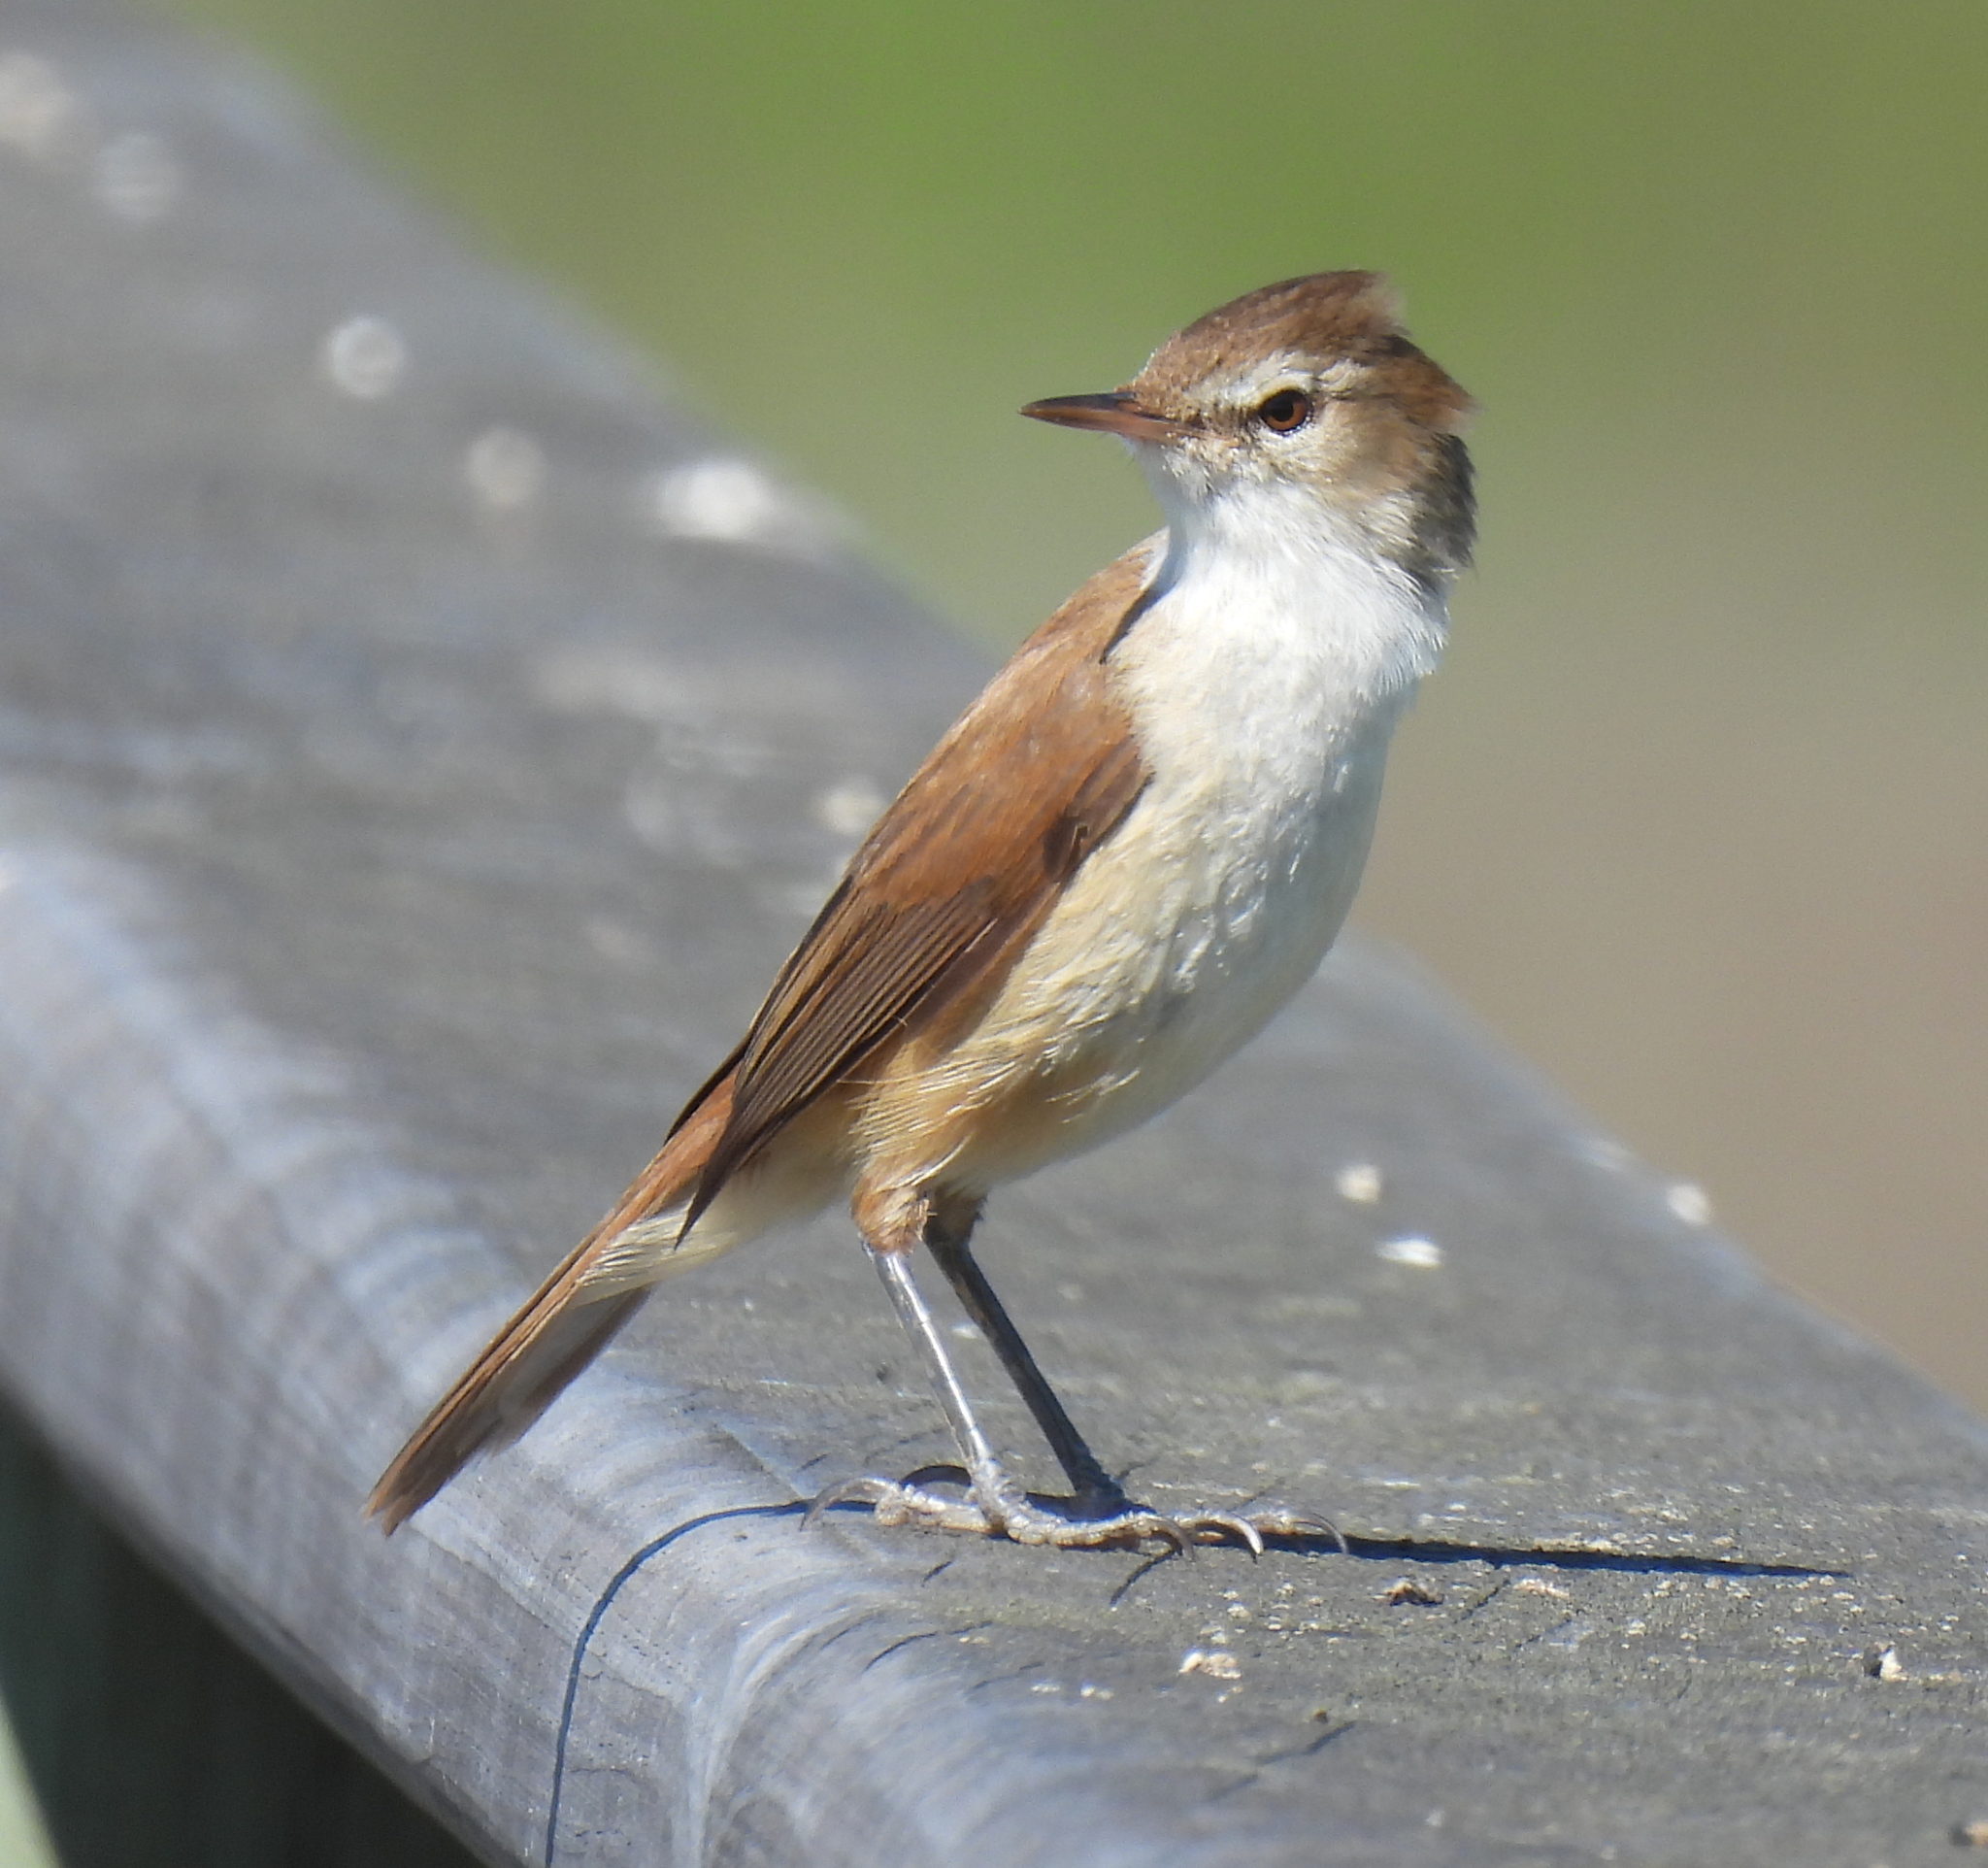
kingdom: Animalia
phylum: Chordata
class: Aves
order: Passeriformes
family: Acrocephalidae
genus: Acrocephalus
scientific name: Acrocephalus gracilirostris
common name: Lesser swamp warbler
